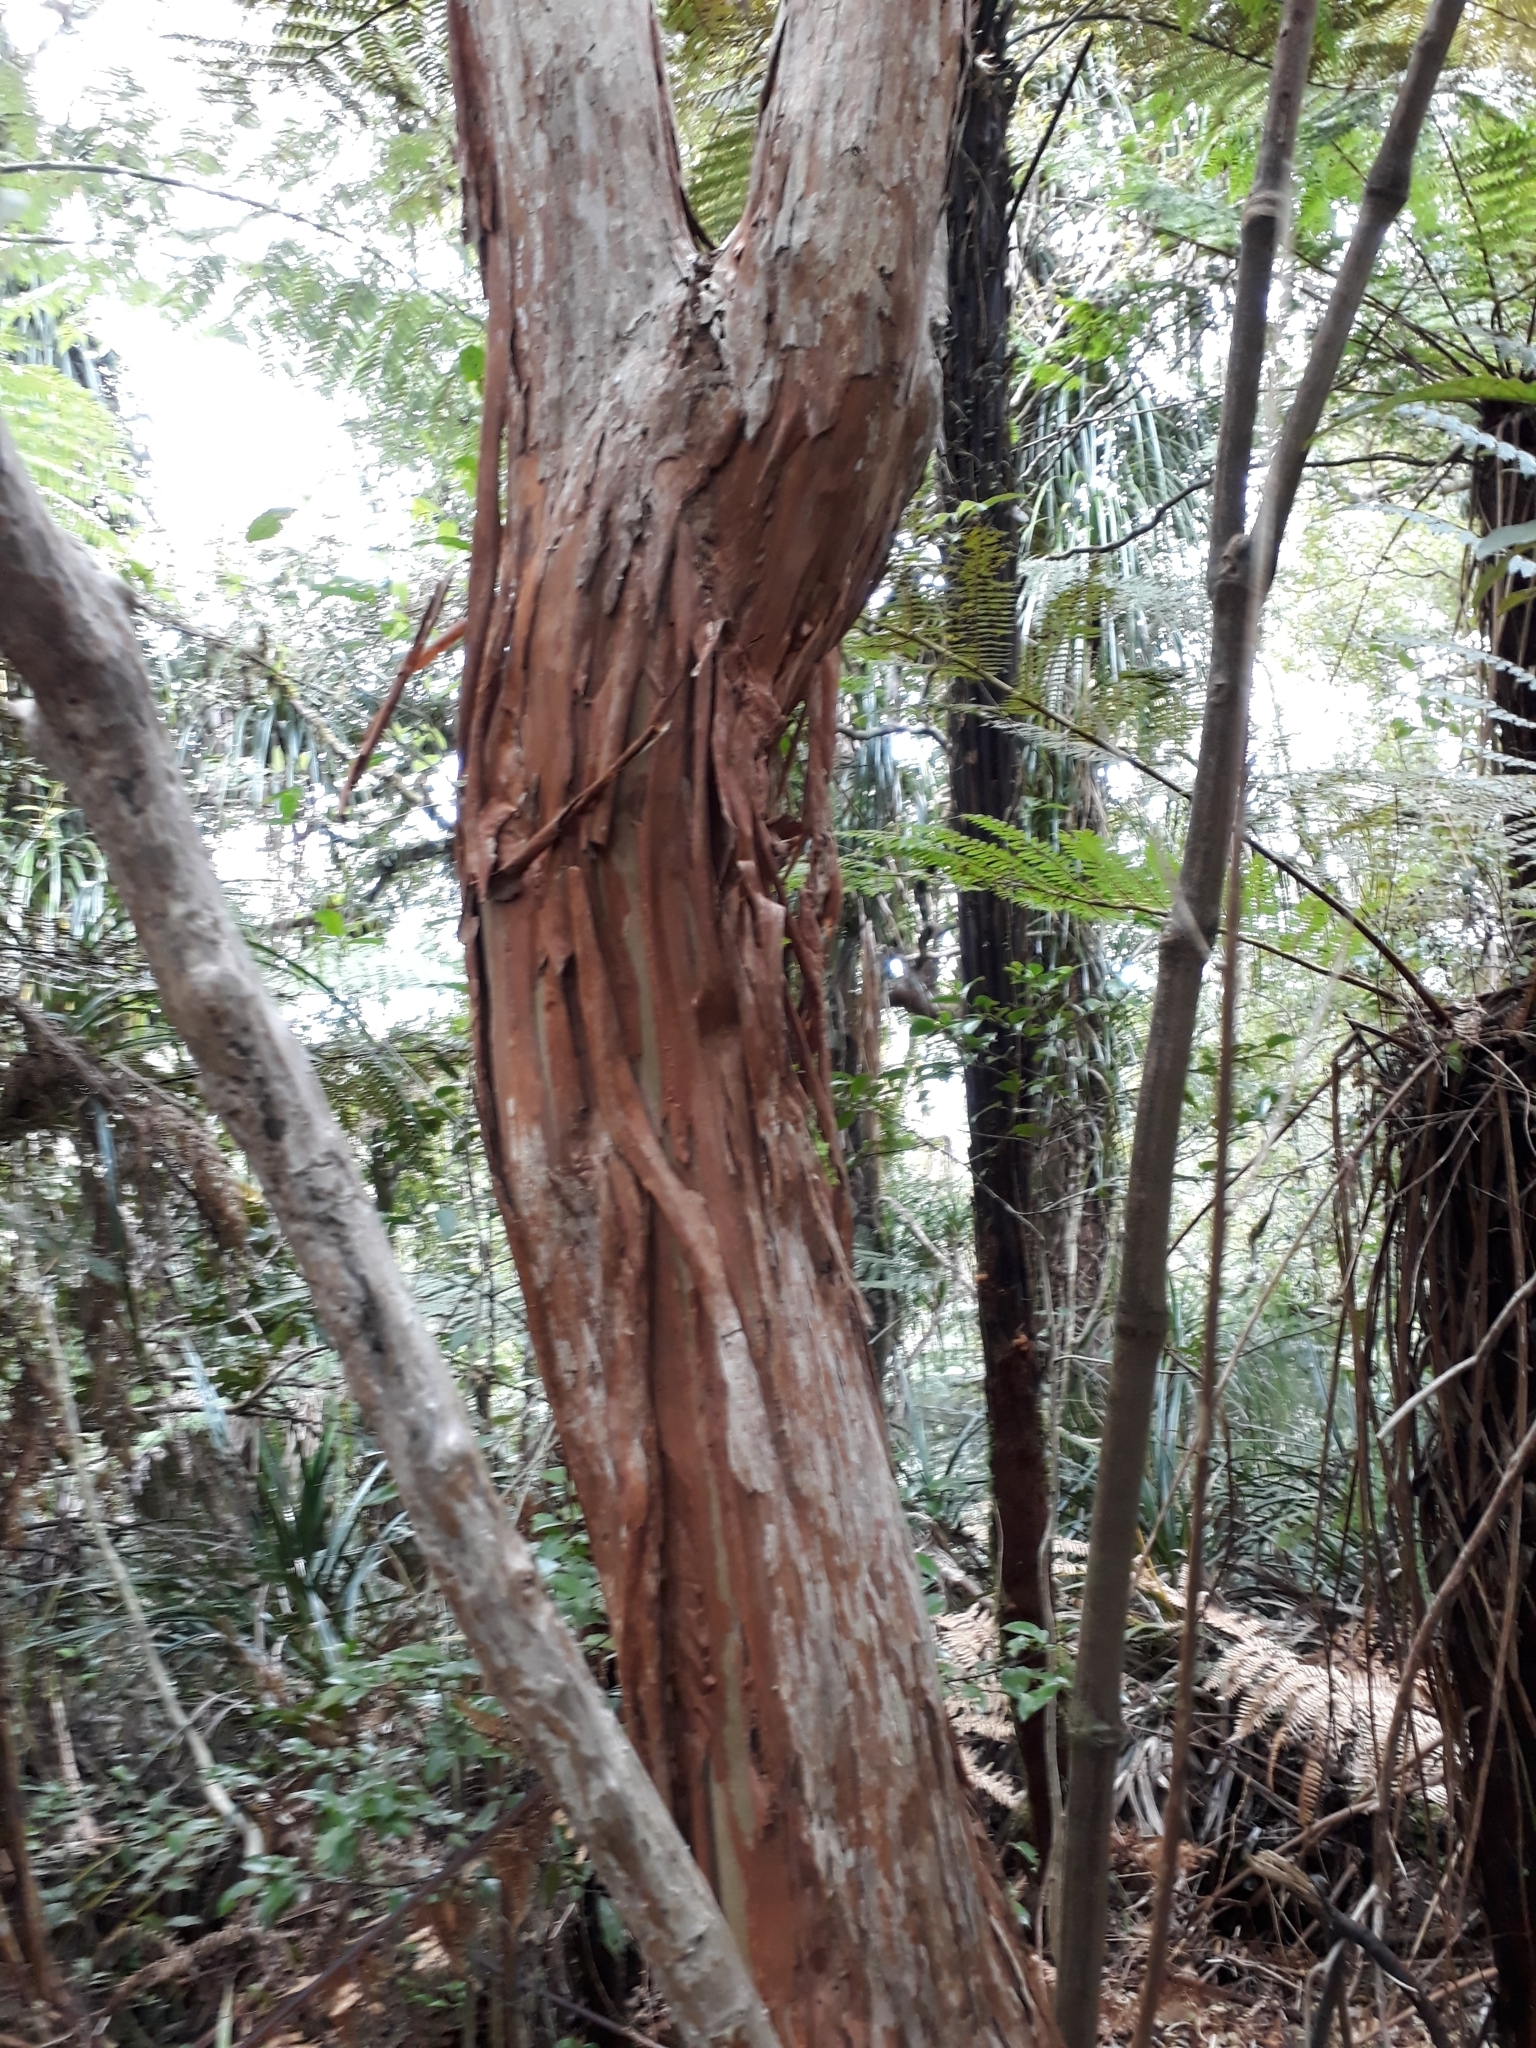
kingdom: Plantae
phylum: Tracheophyta
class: Magnoliopsida
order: Myrtales
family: Onagraceae
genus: Fuchsia
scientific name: Fuchsia excorticata
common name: Tree fuchsia
